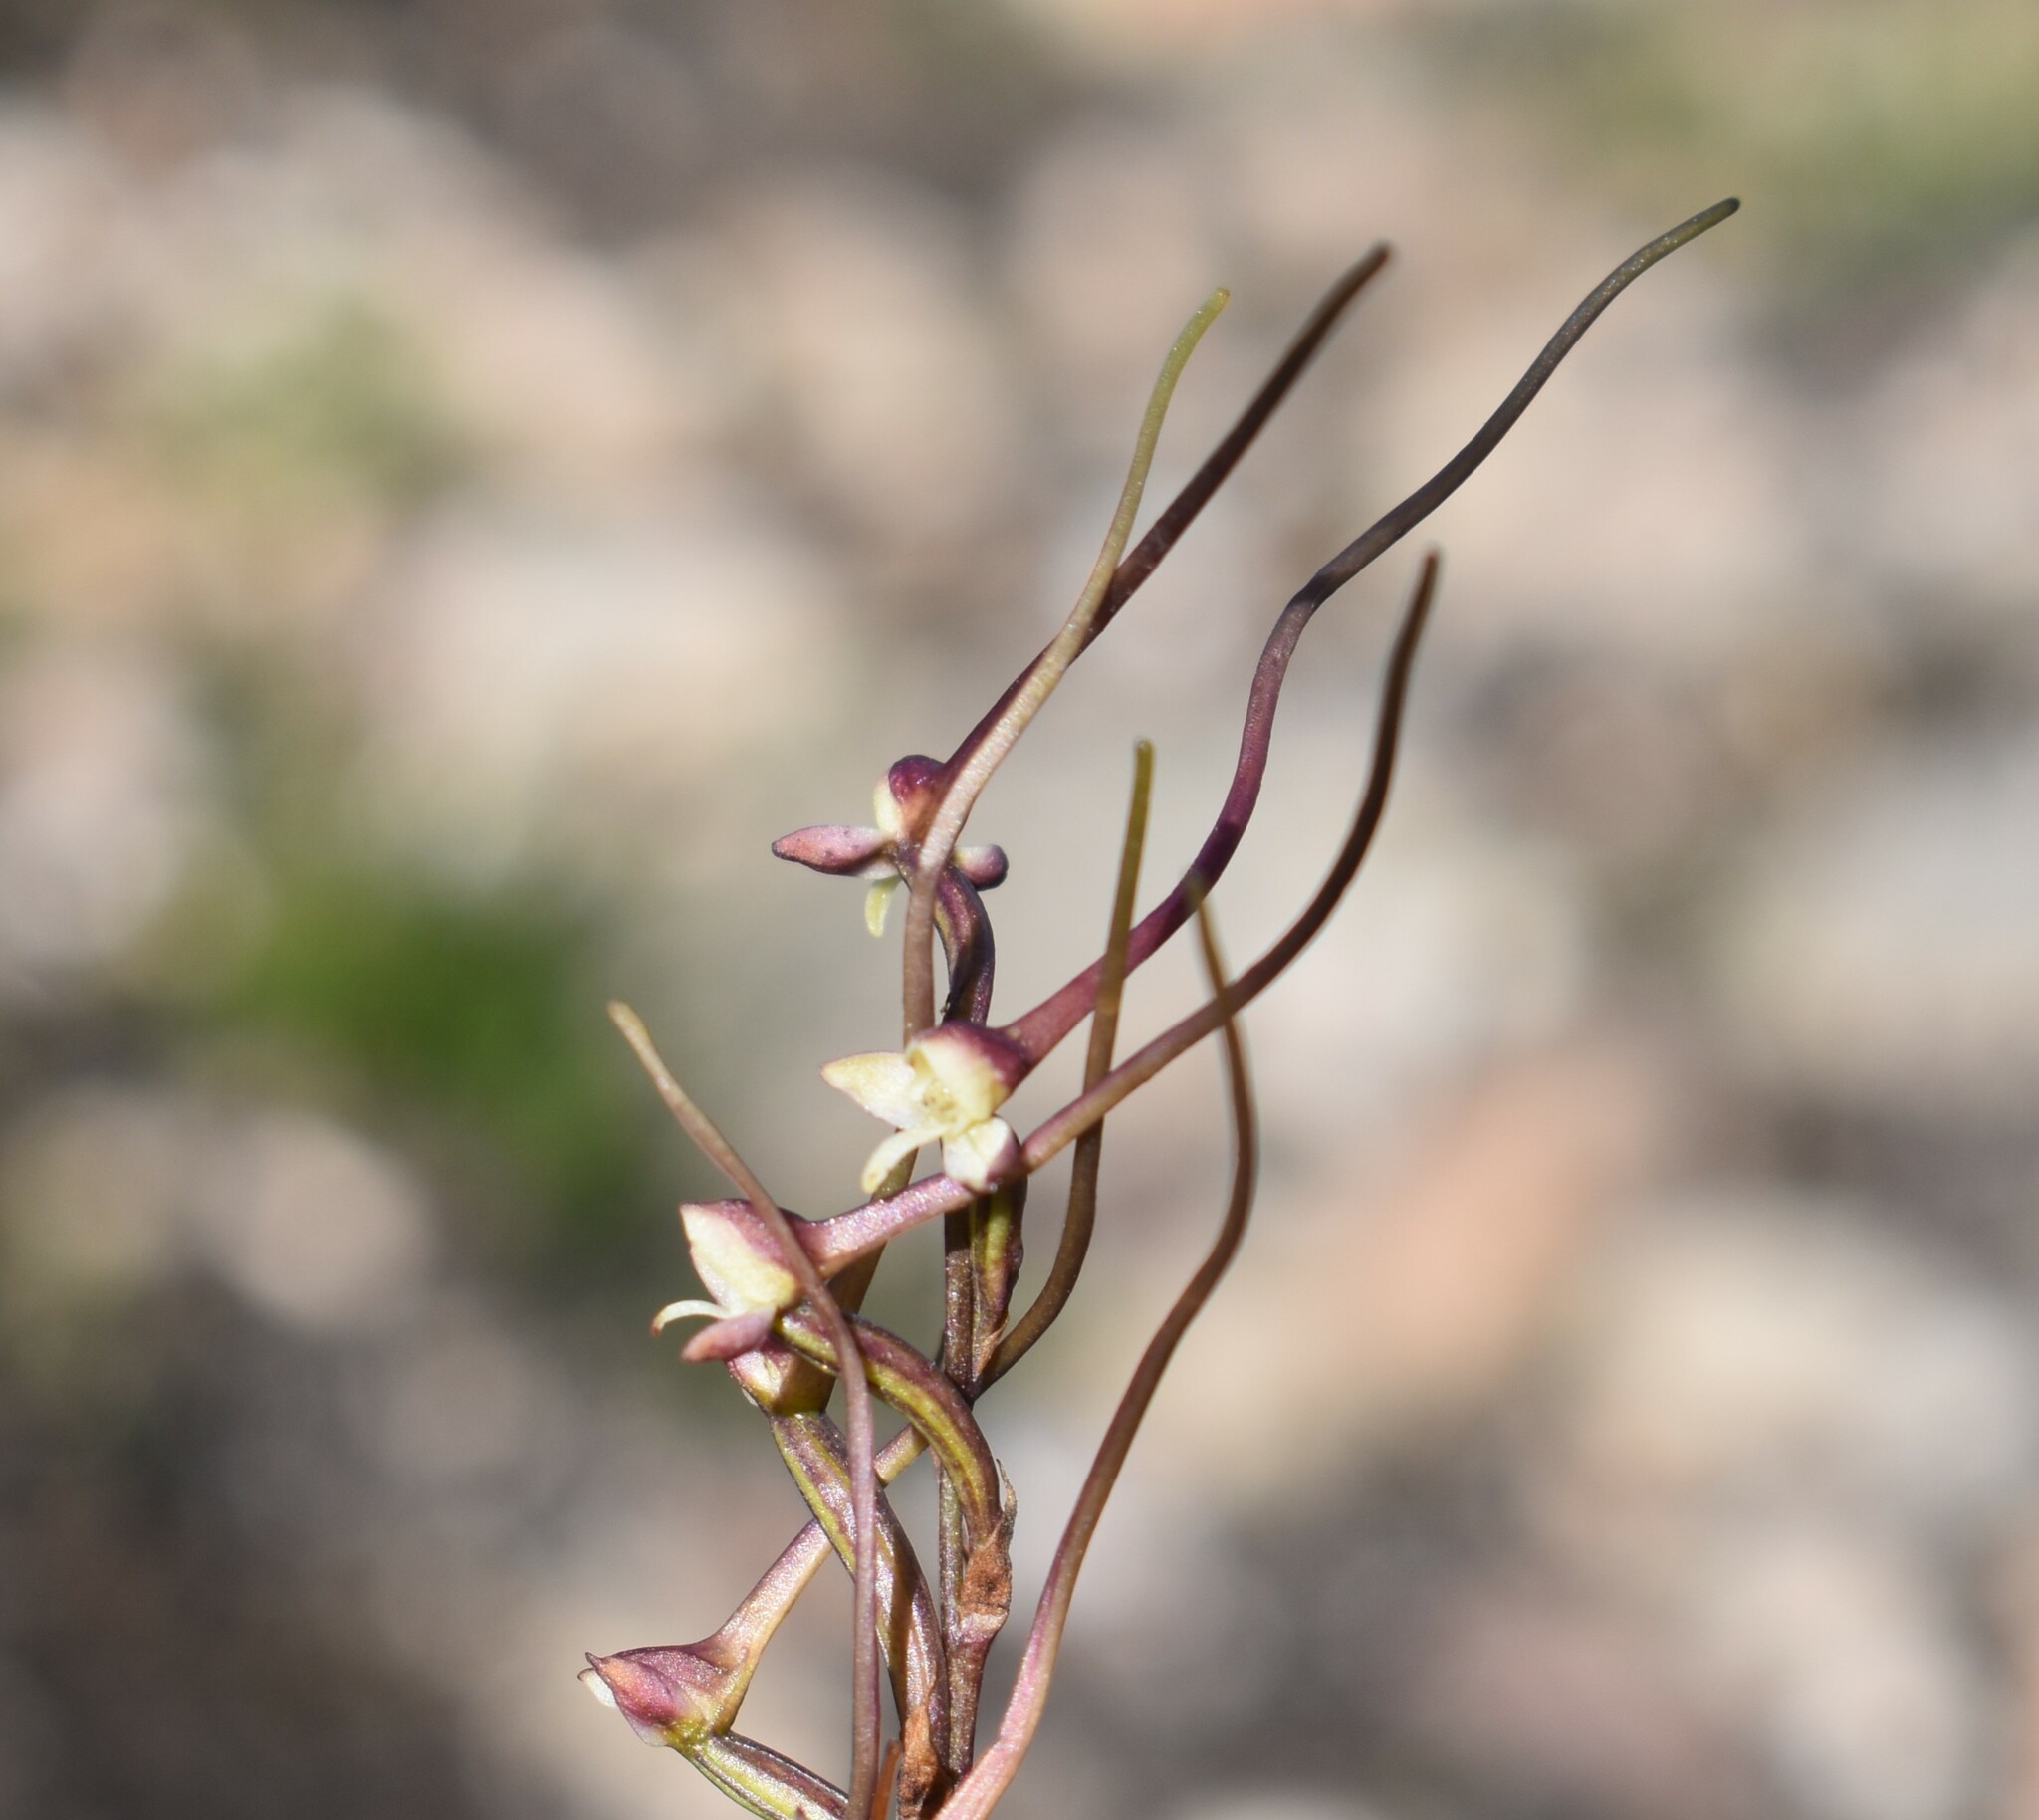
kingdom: Plantae
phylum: Tracheophyta
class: Liliopsida
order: Asparagales
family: Orchidaceae
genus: Disa
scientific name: Disa salteri
